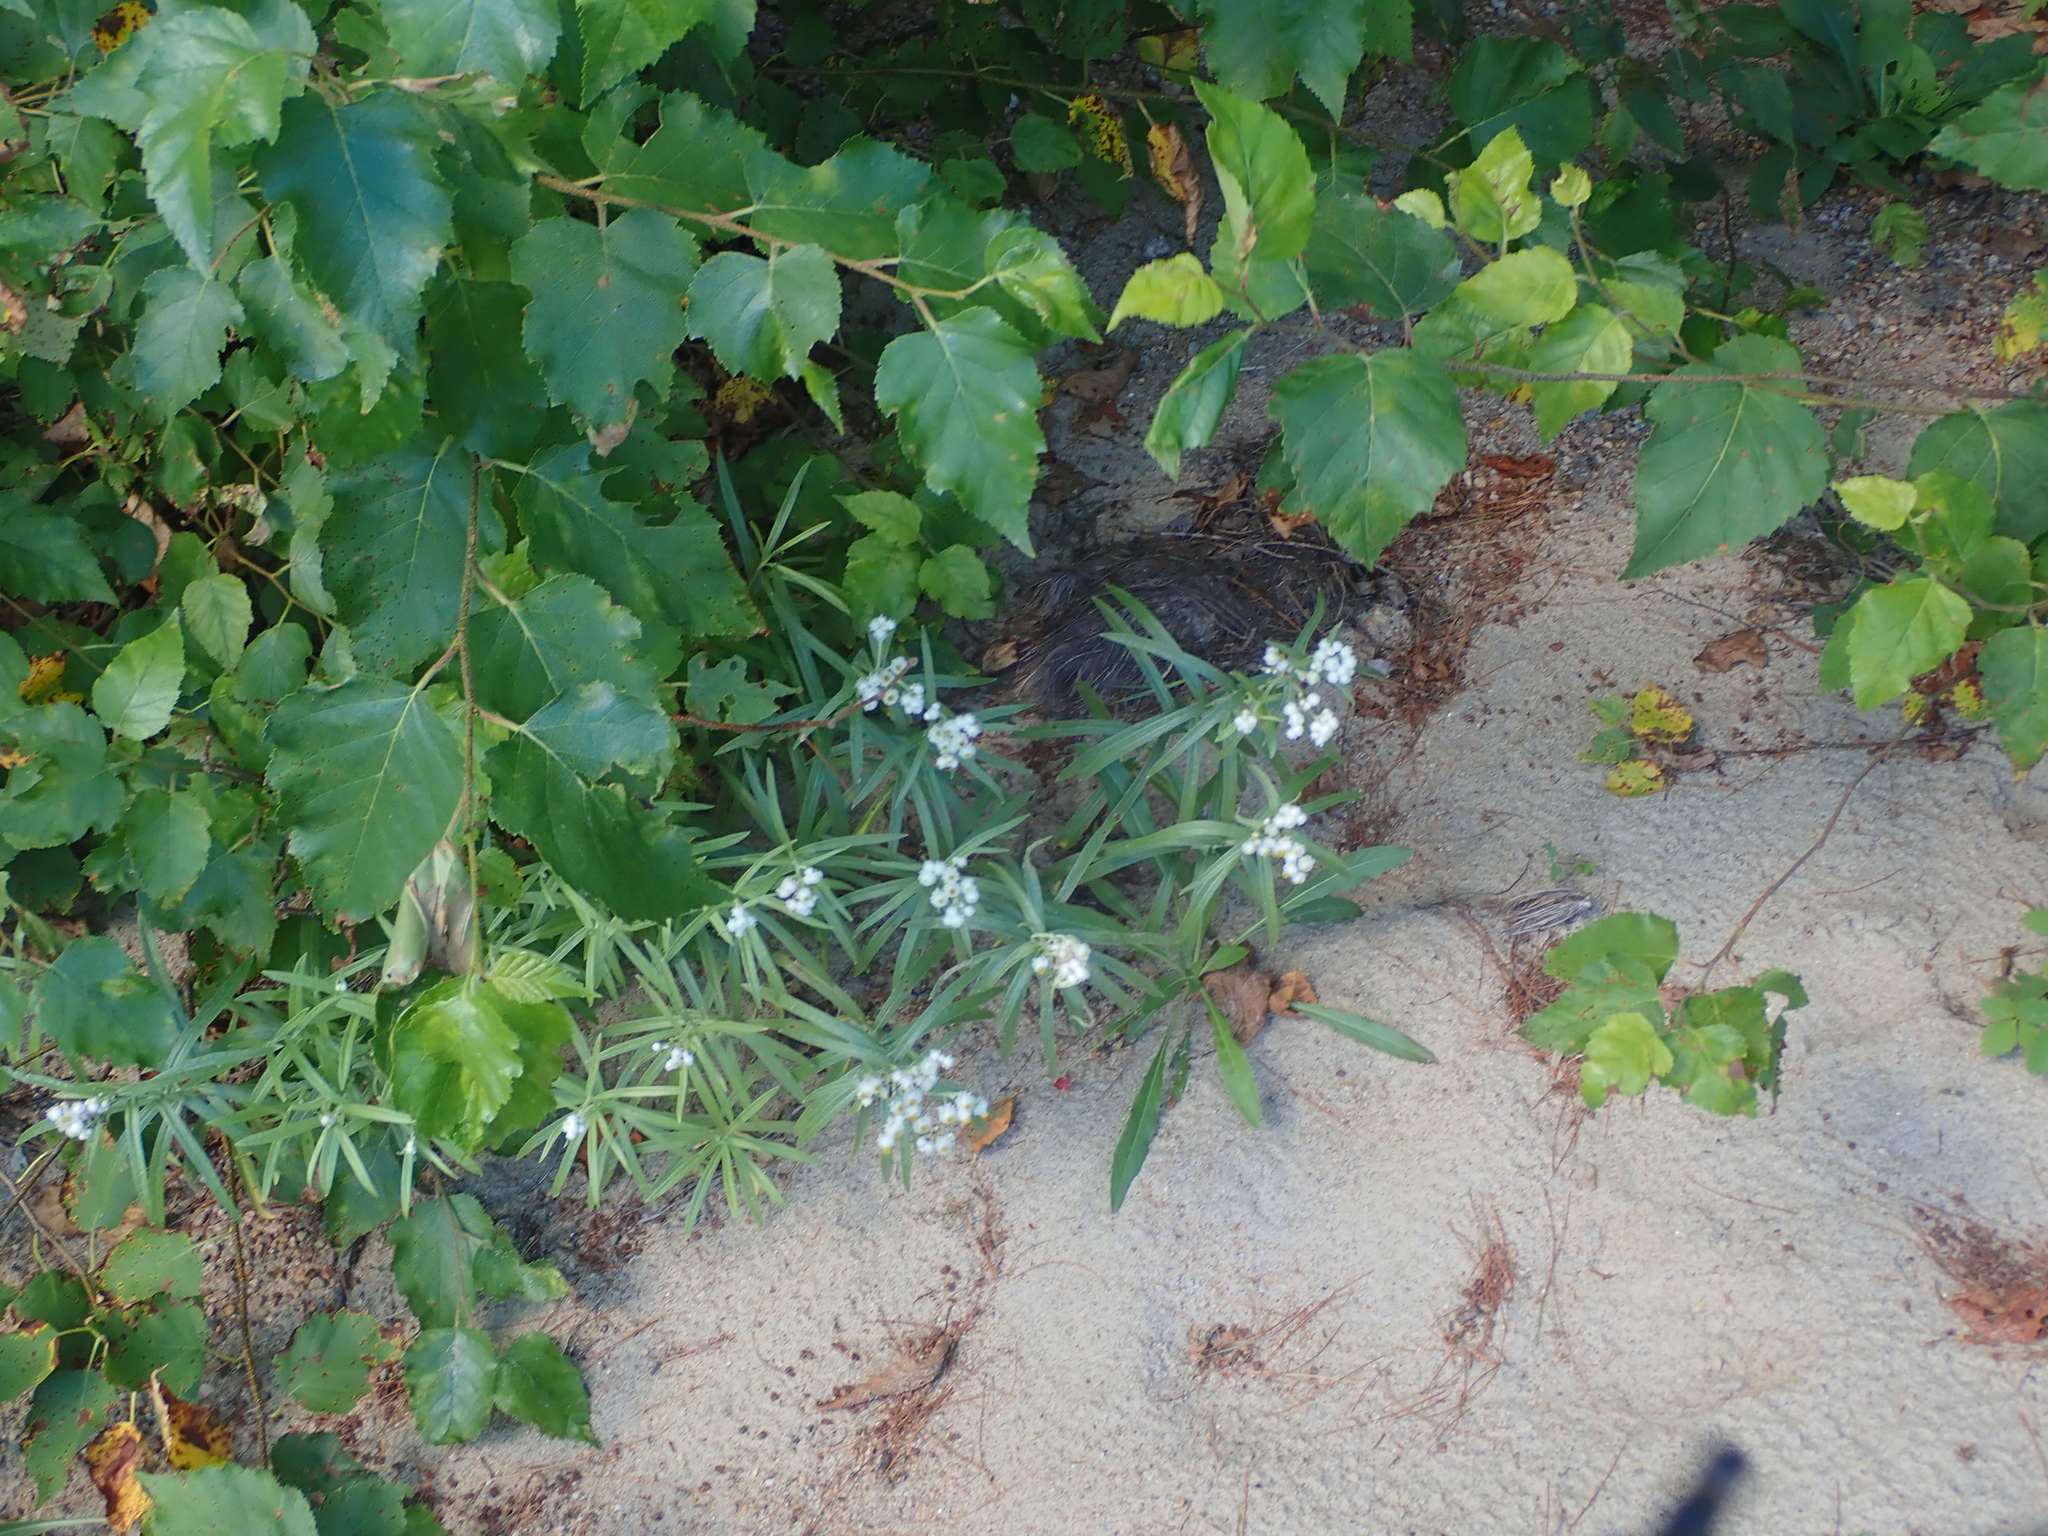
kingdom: Plantae
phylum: Tracheophyta
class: Magnoliopsida
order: Asterales
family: Asteraceae
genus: Anaphalis
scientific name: Anaphalis margaritacea
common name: Pearly everlasting
